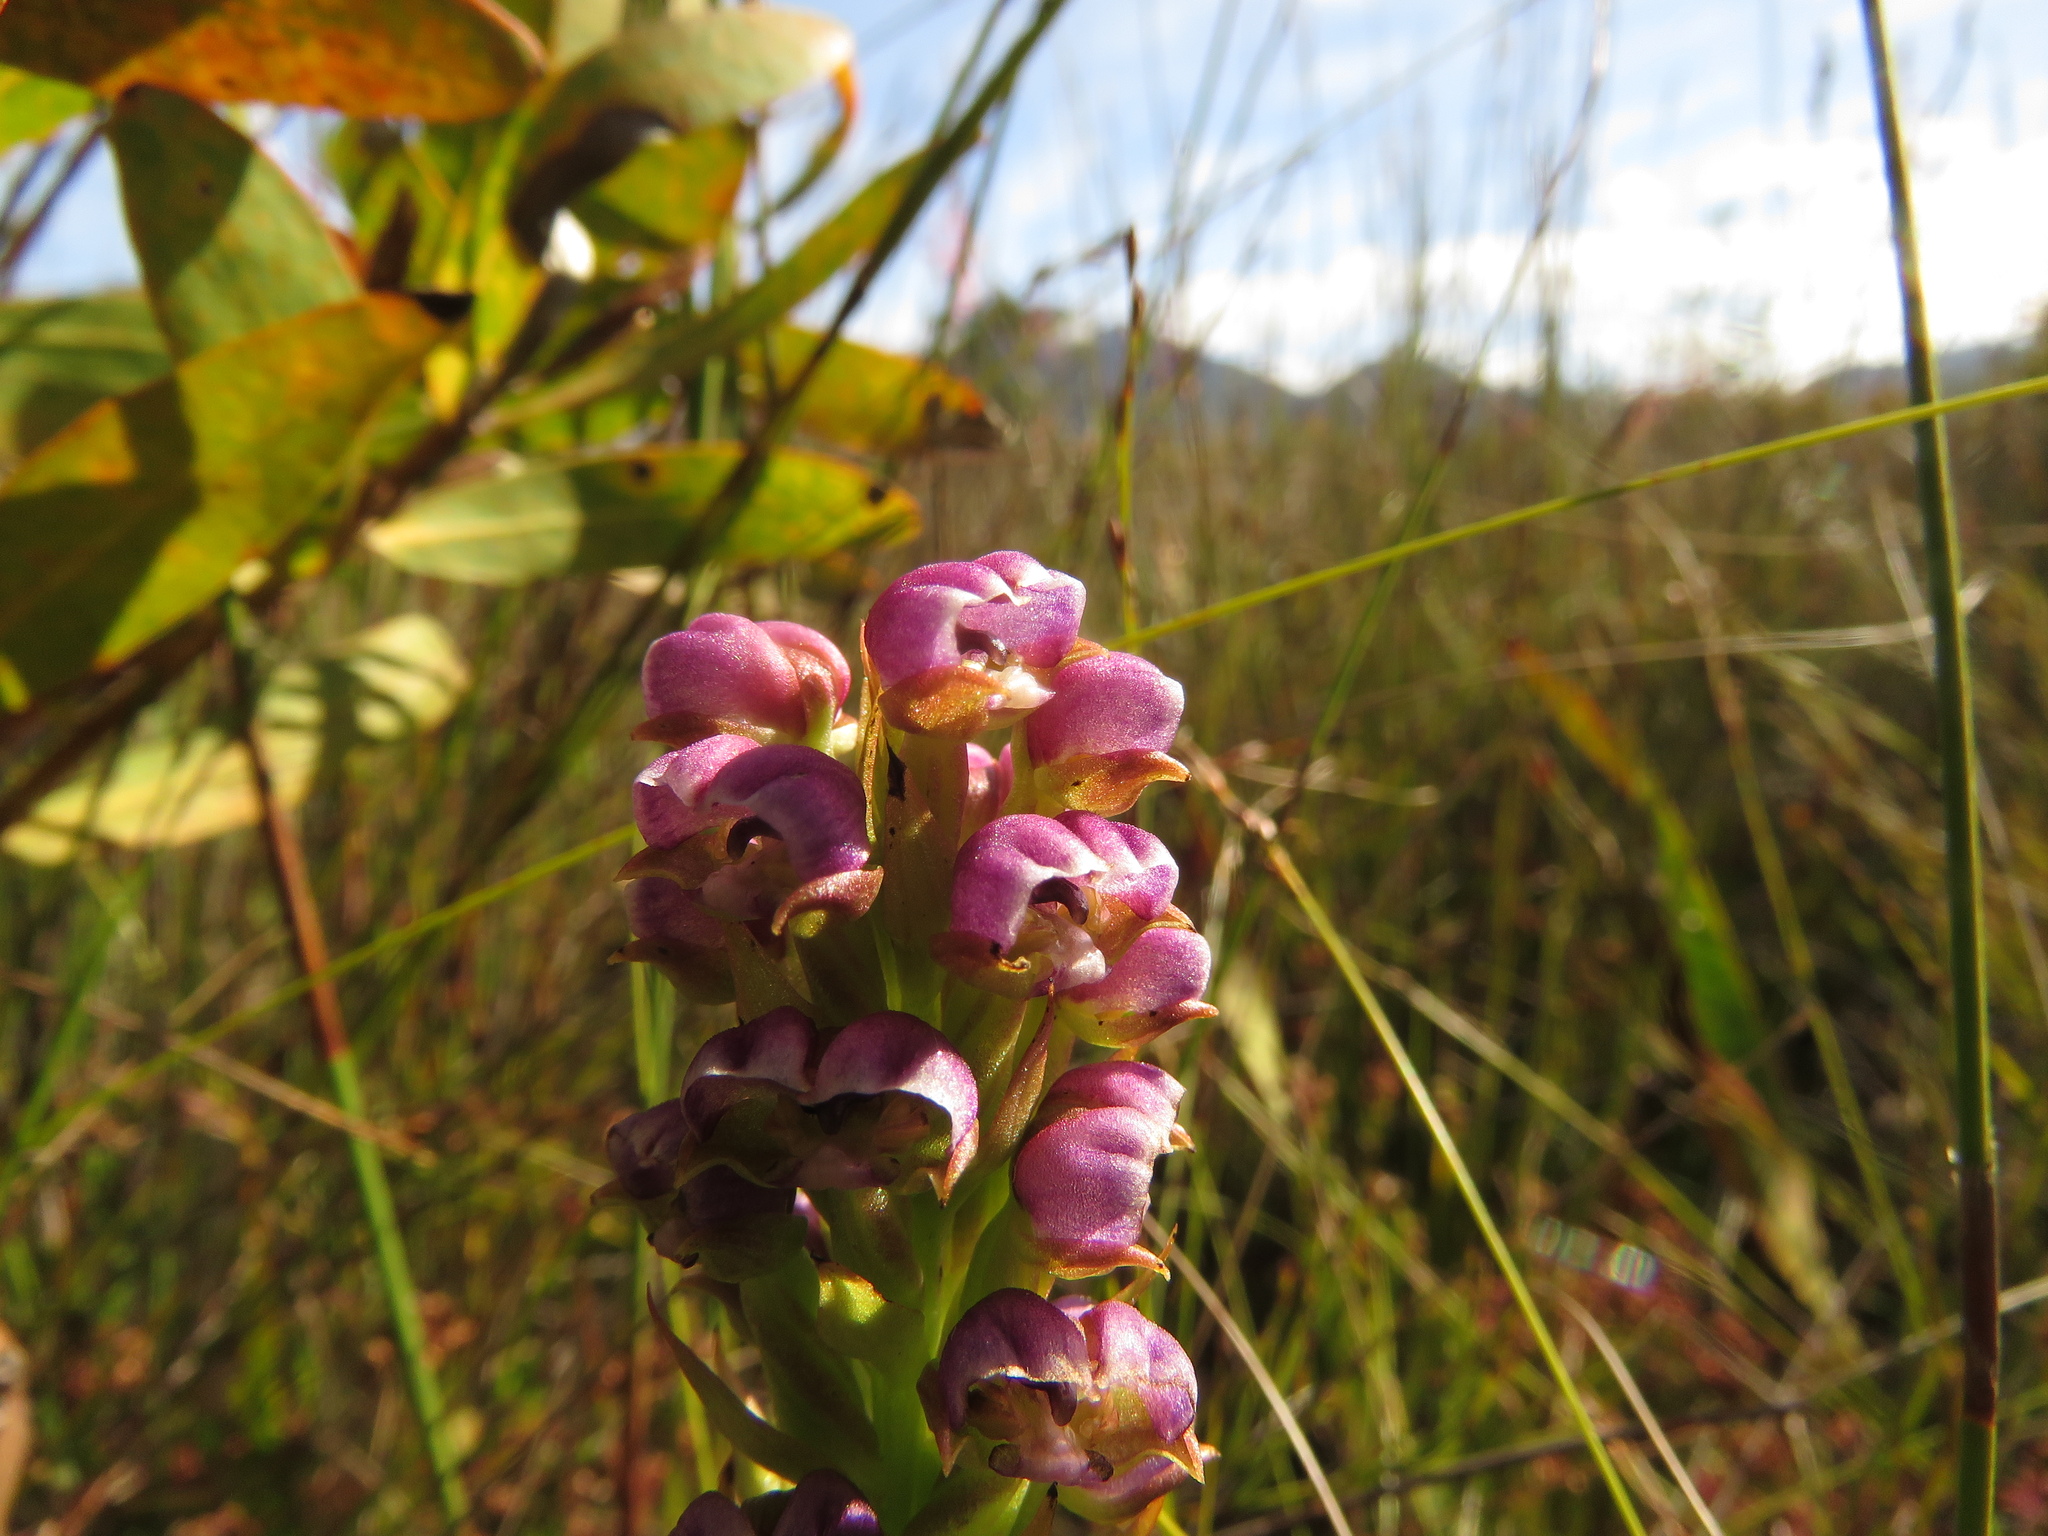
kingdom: Plantae
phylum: Tracheophyta
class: Liliopsida
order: Asparagales
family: Orchidaceae
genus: Evotella
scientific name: Evotella carnosa
